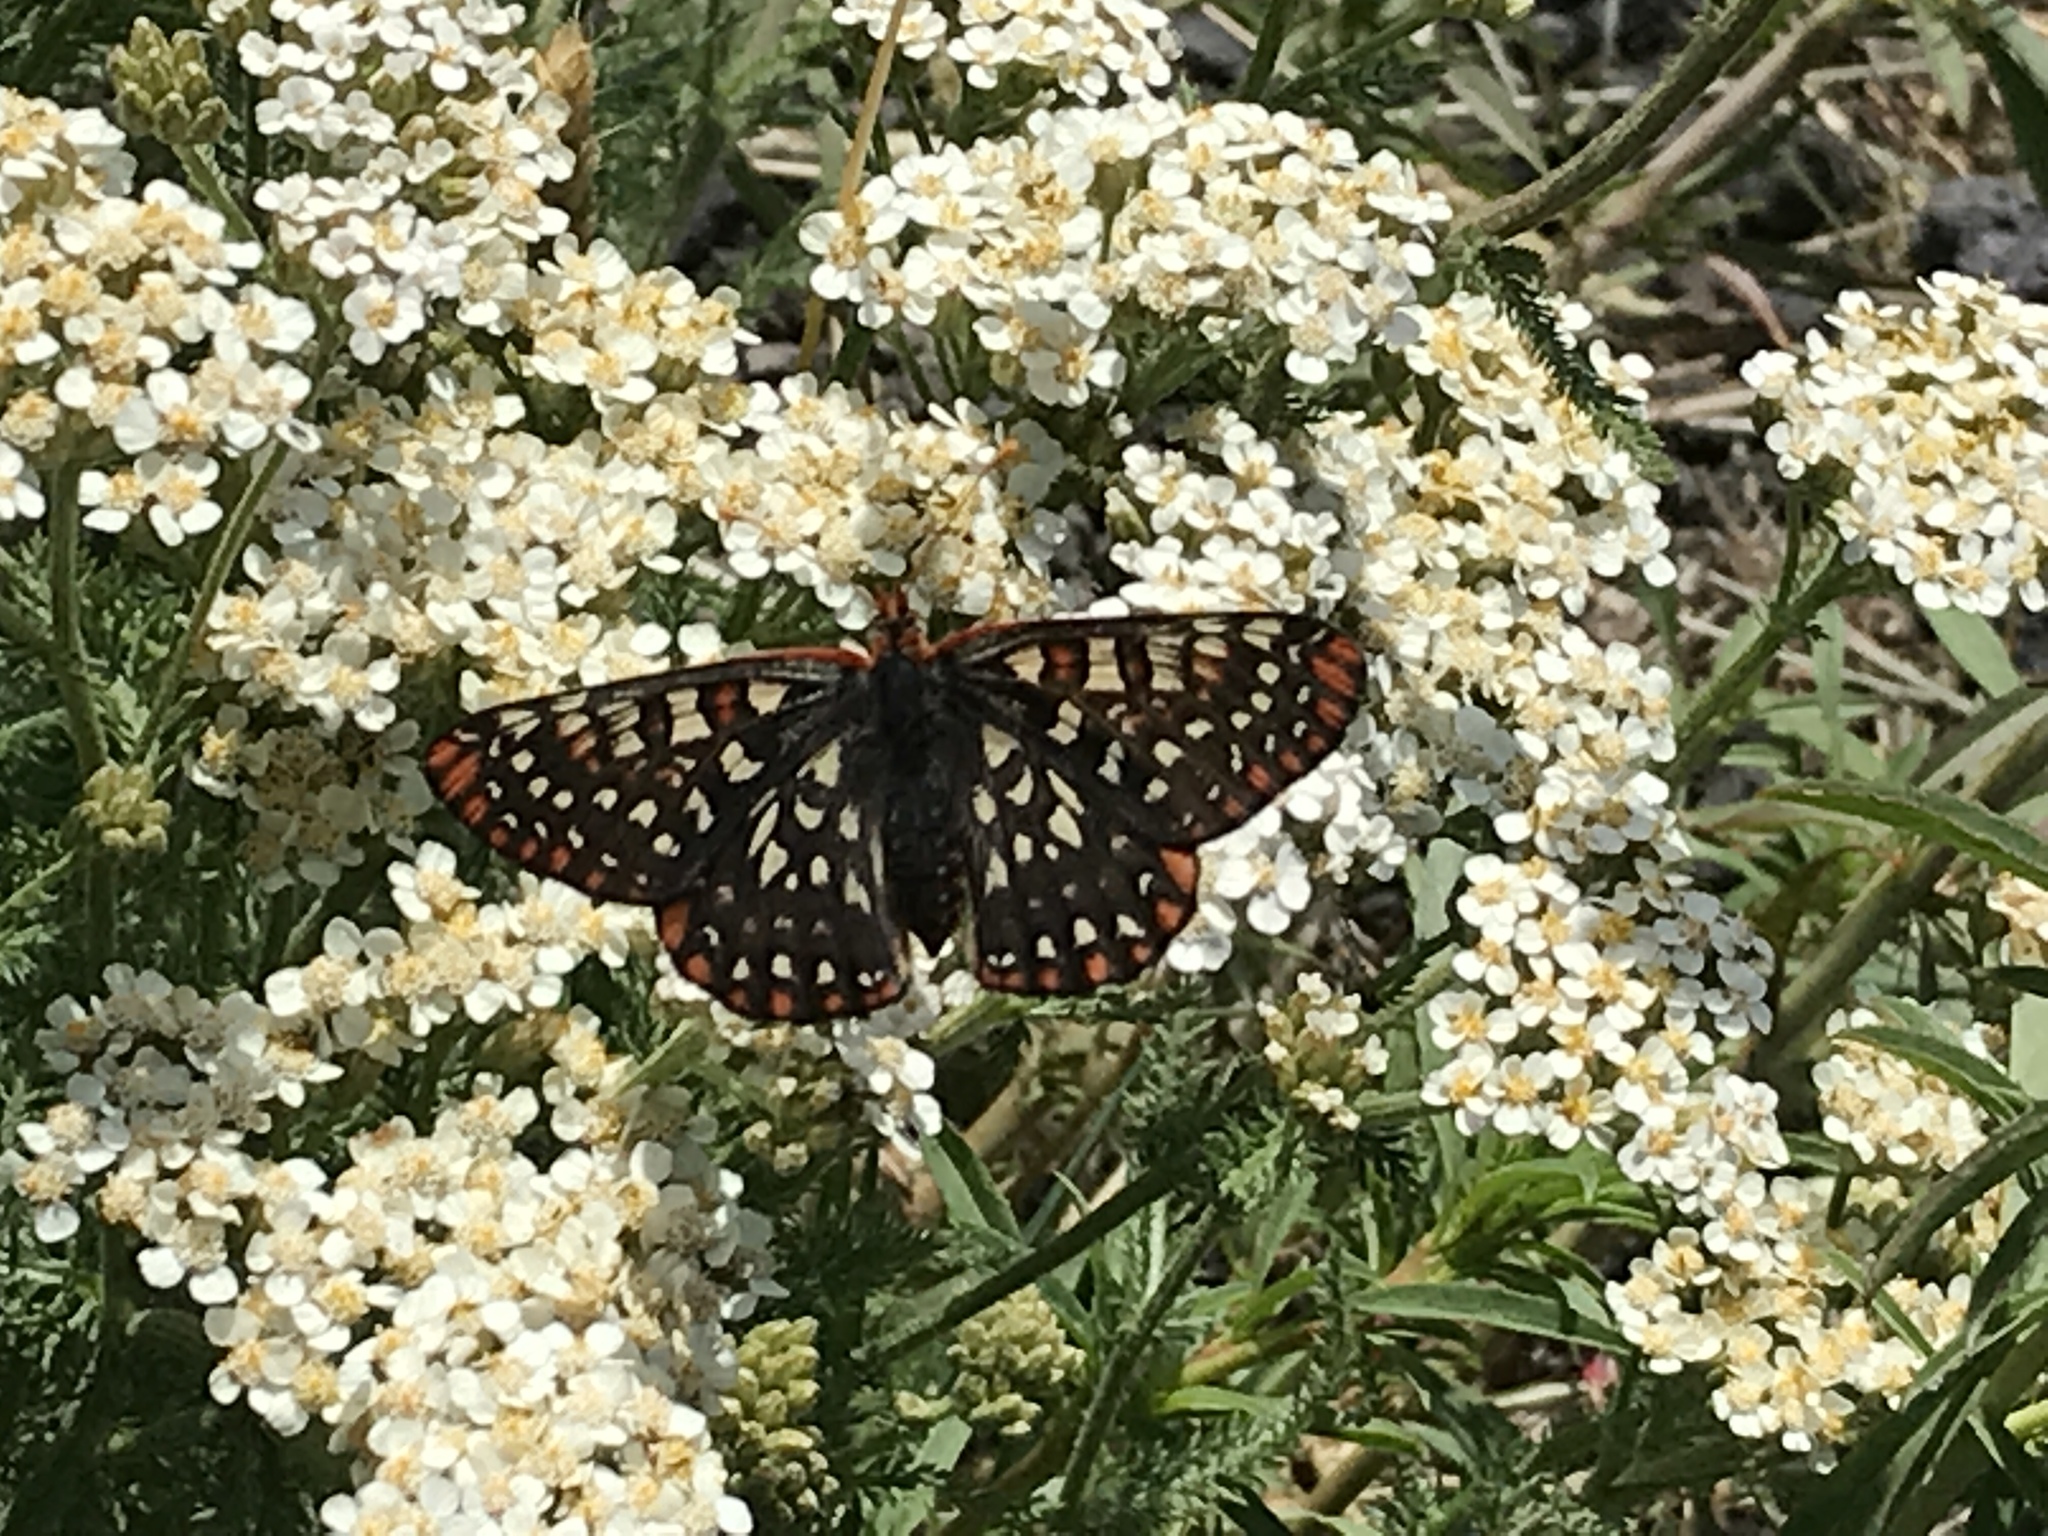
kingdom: Animalia
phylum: Arthropoda
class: Insecta
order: Lepidoptera
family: Nymphalidae
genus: Occidryas
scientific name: Occidryas colon
